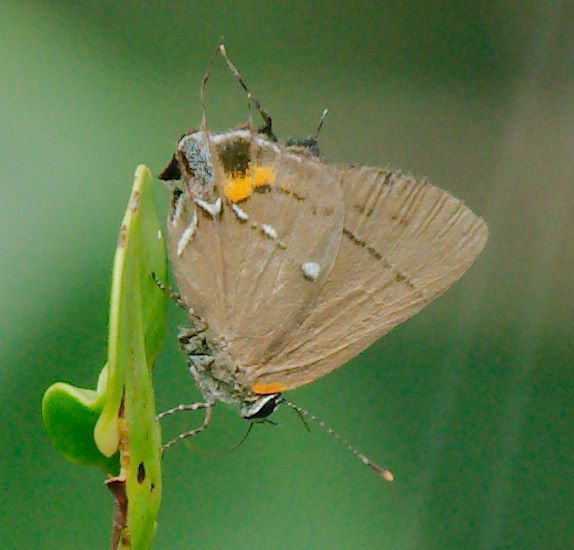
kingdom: Animalia
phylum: Arthropoda
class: Insecta
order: Lepidoptera
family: Lycaenidae
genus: Thecla
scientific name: Thecla angelia
